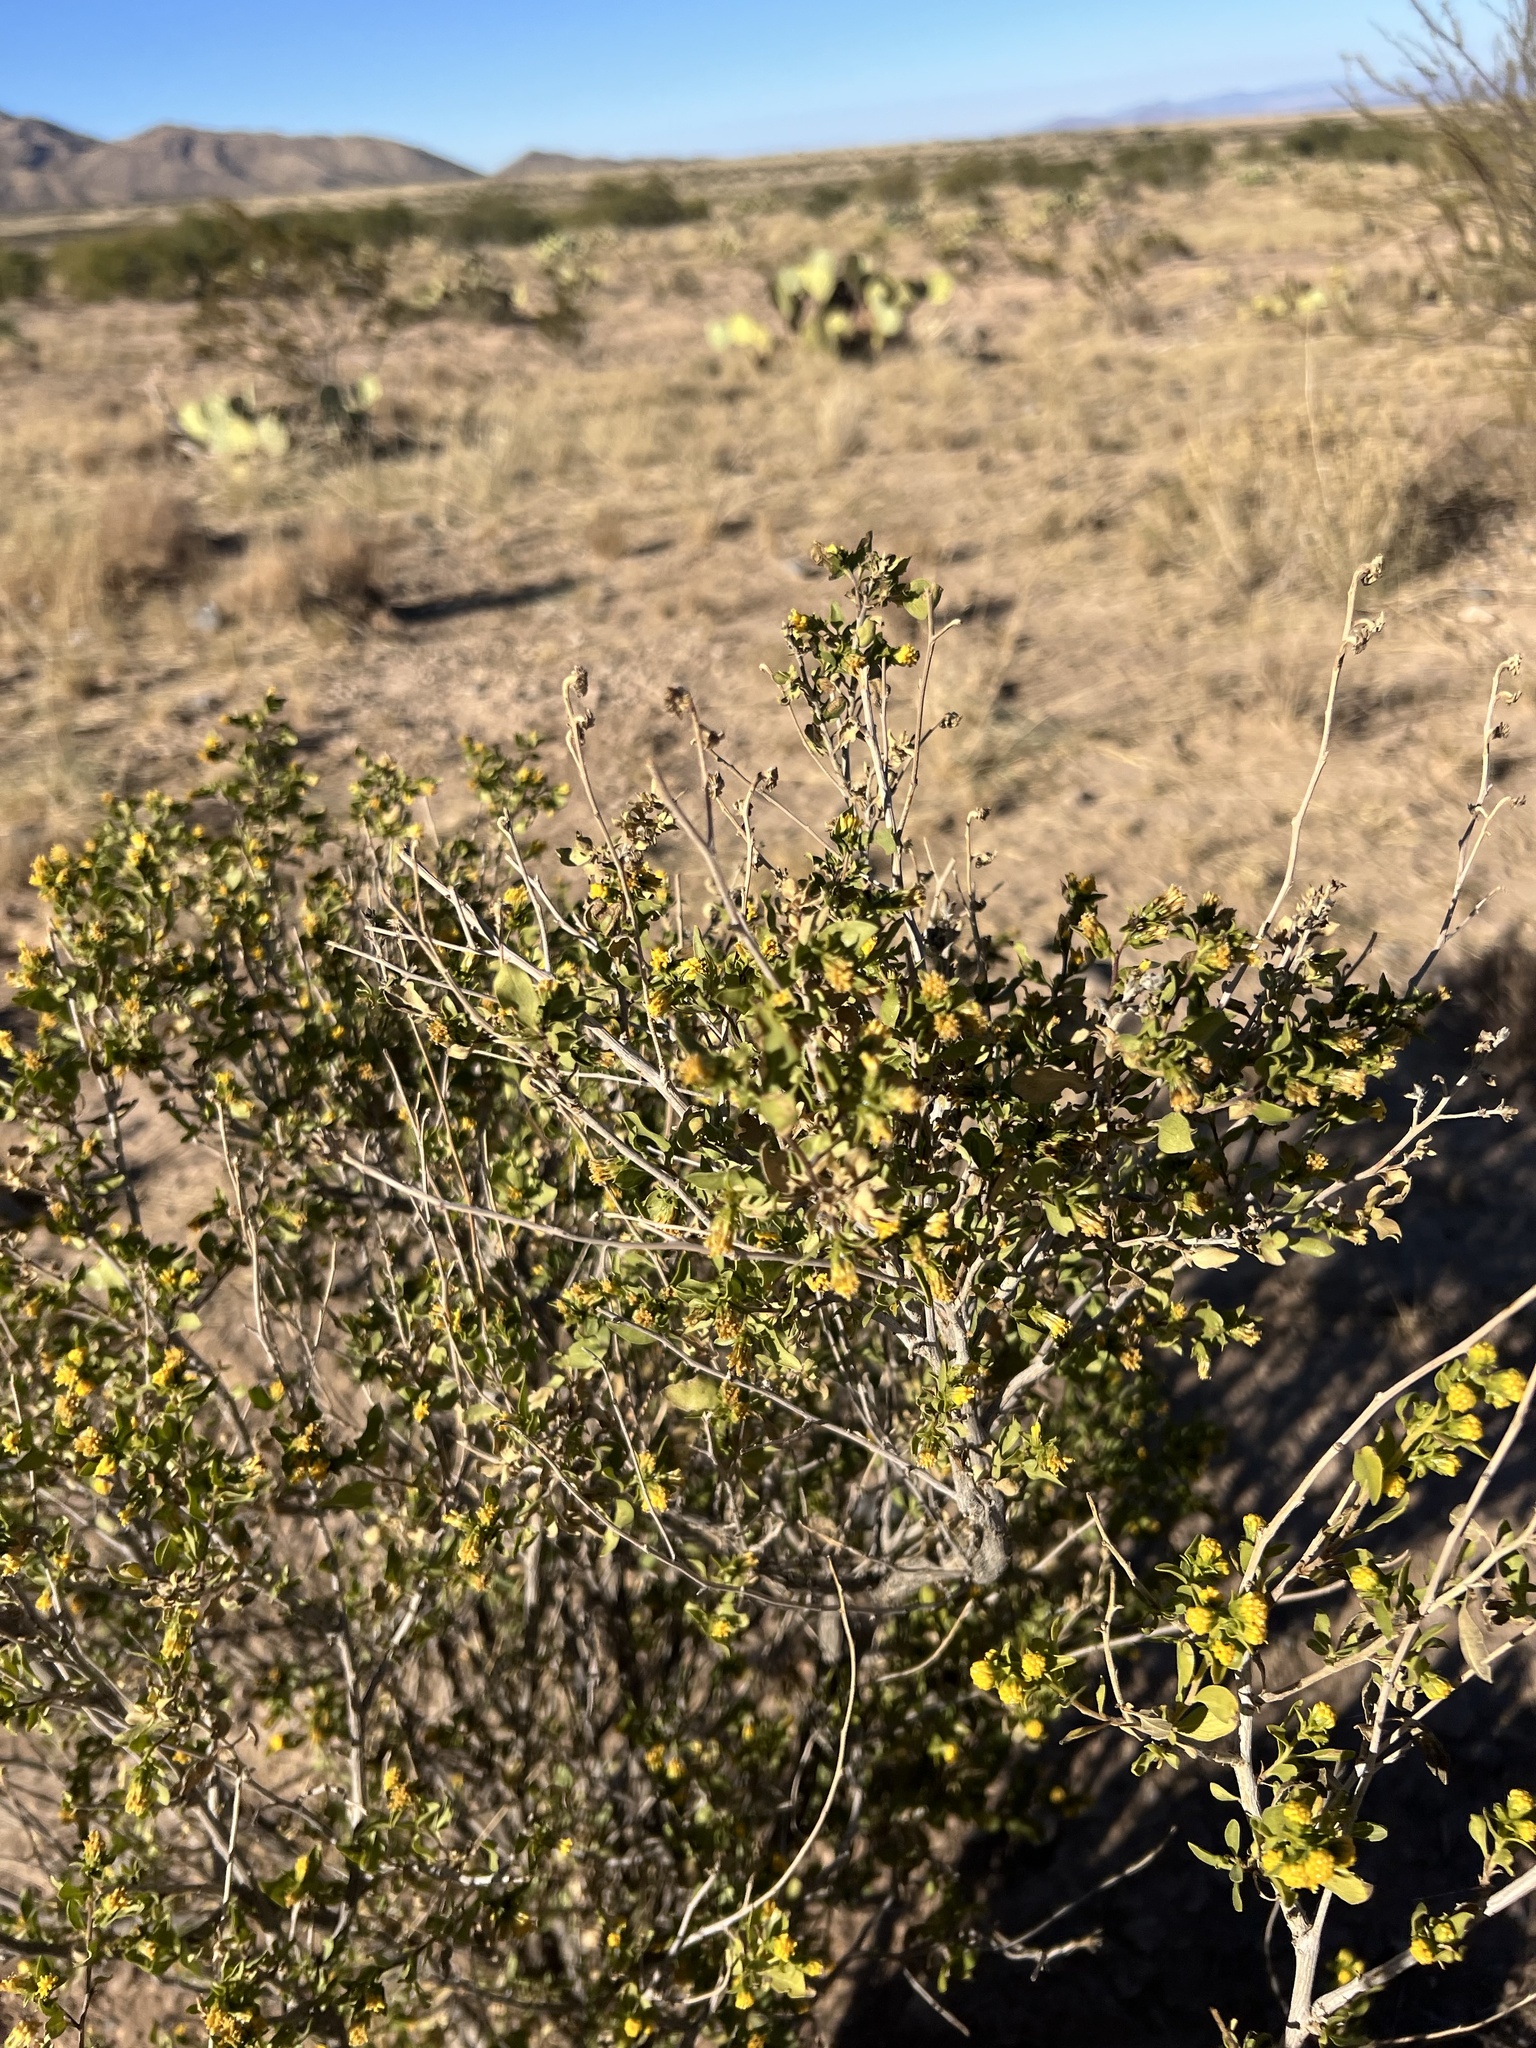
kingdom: Plantae
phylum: Tracheophyta
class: Magnoliopsida
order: Asterales
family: Asteraceae
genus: Flourensia
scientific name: Flourensia cernua
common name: Varnishbush
